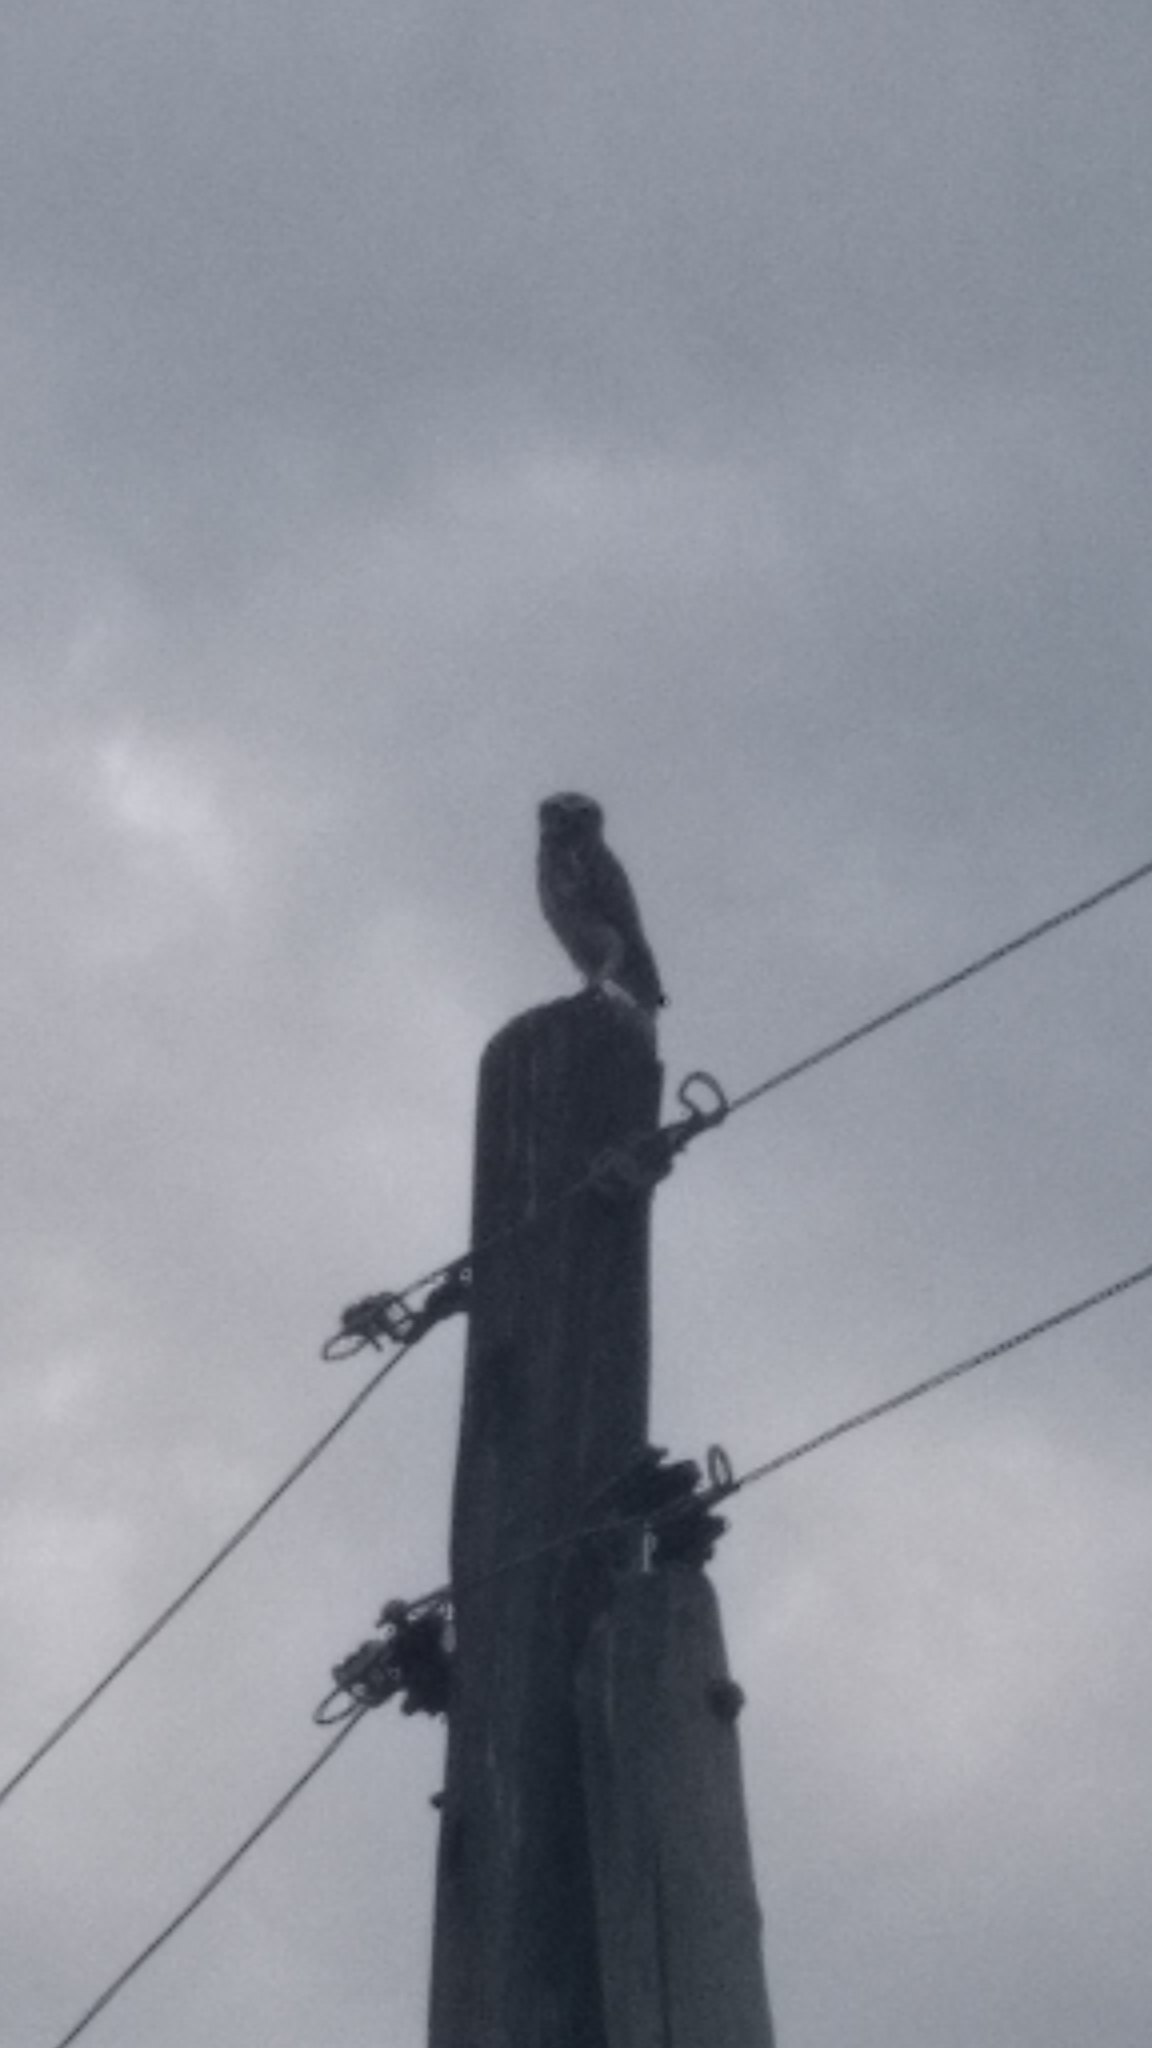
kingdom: Animalia
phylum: Chordata
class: Aves
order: Strigiformes
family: Strigidae
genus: Athene
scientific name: Athene cunicularia
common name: Burrowing owl
